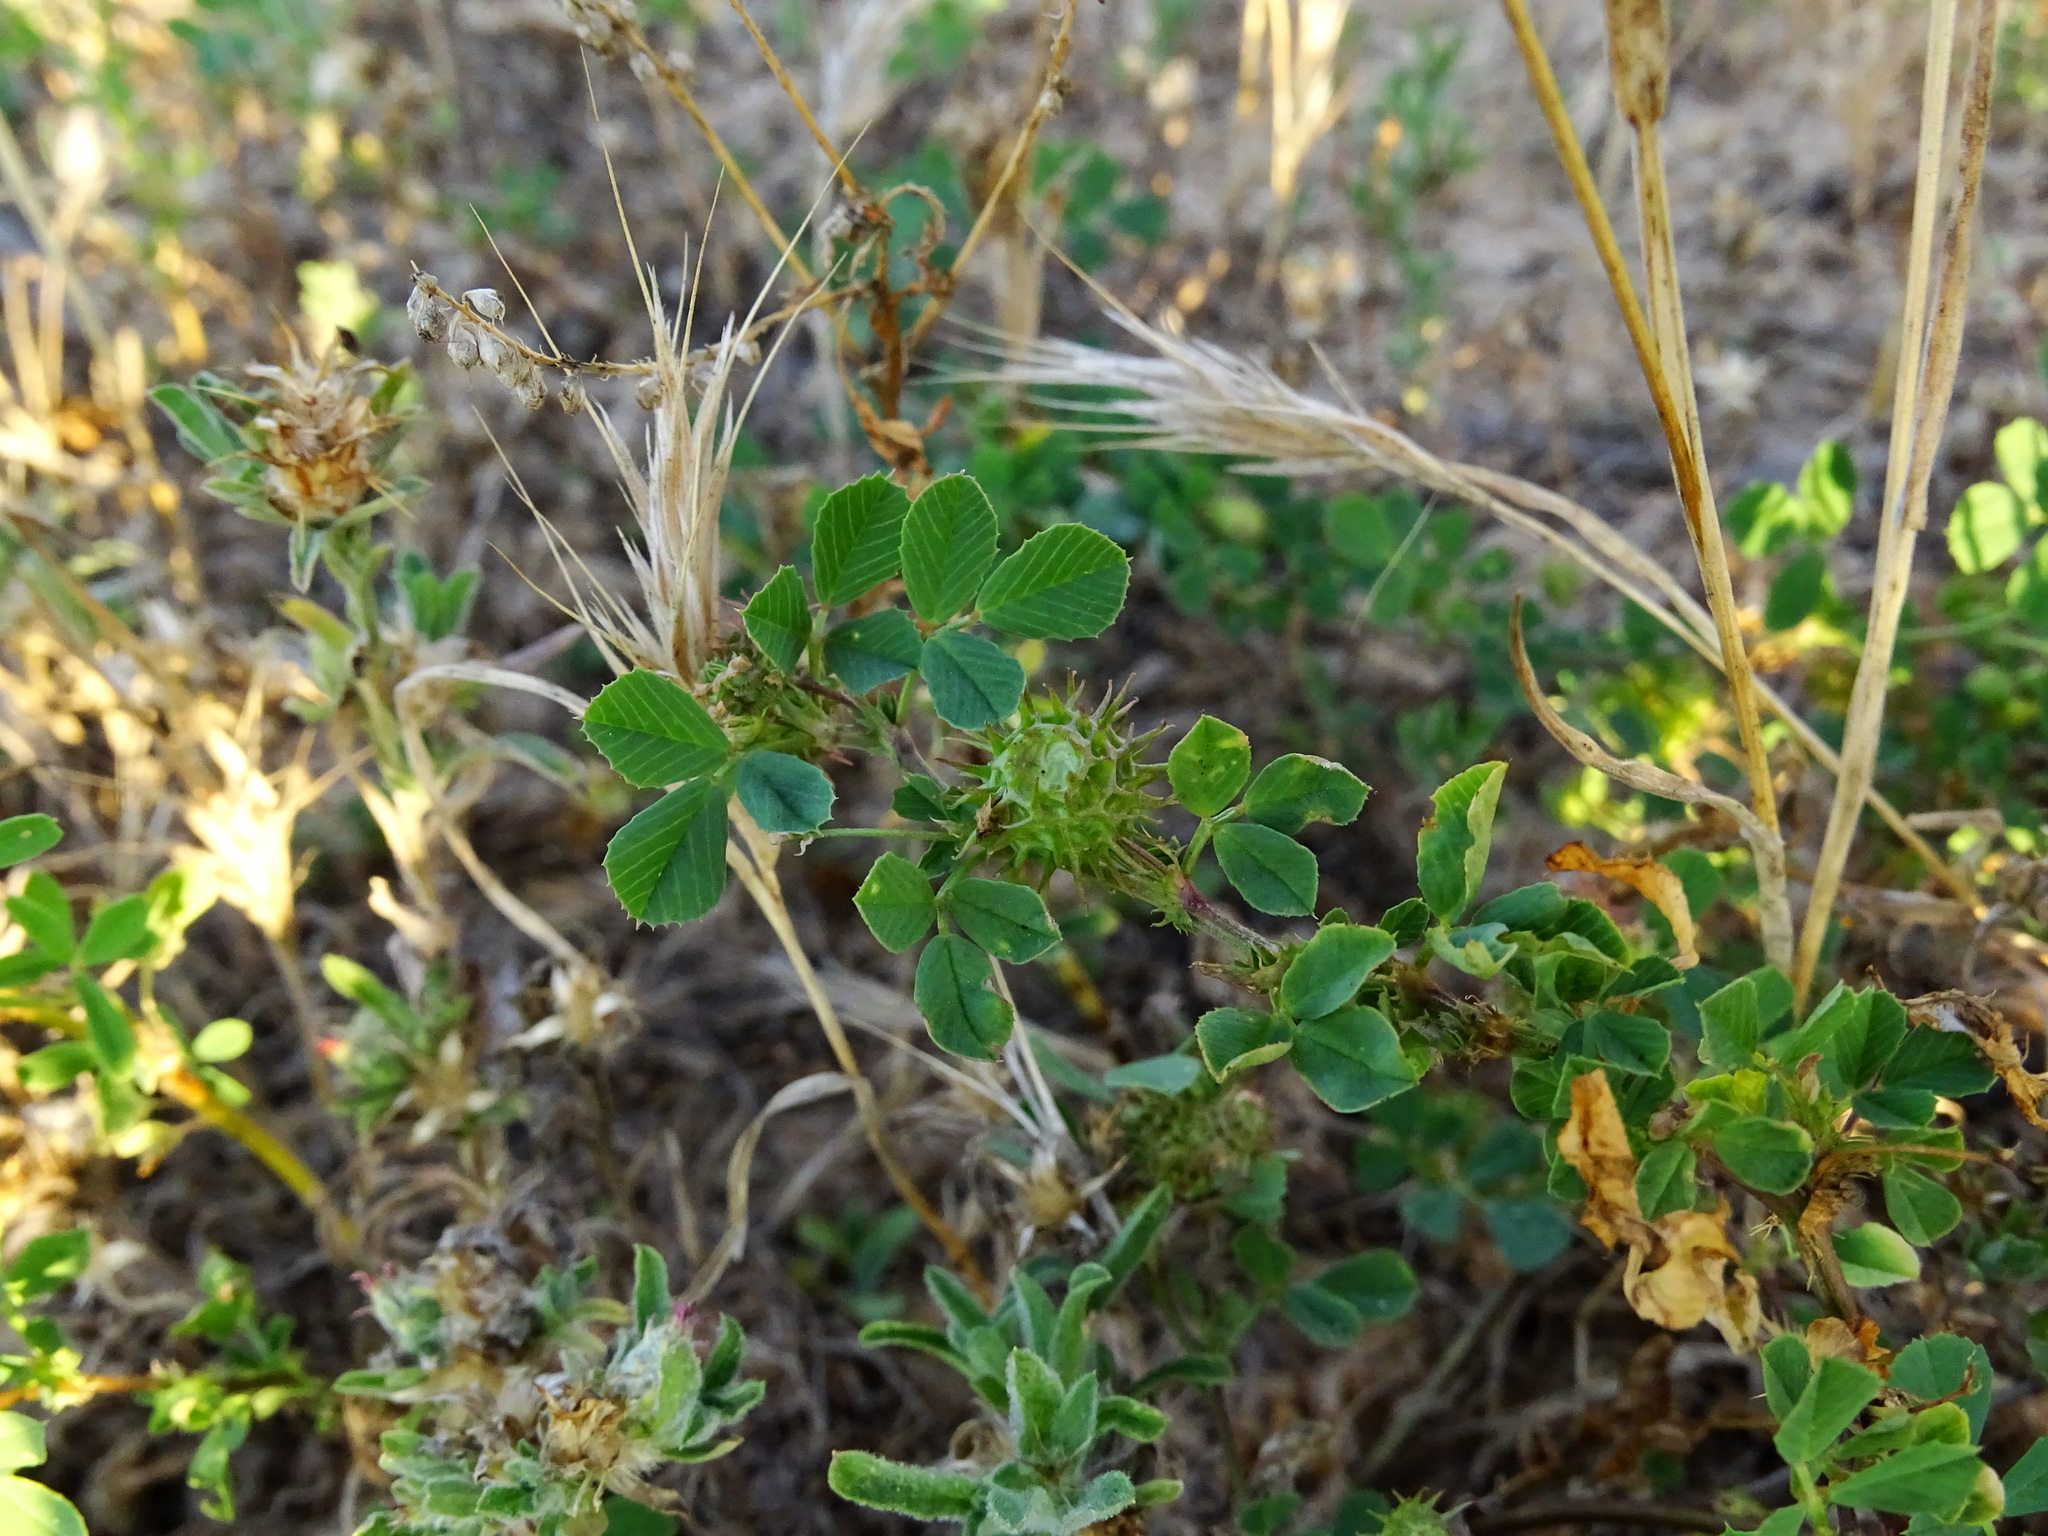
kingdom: Plantae
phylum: Tracheophyta
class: Magnoliopsida
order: Fabales
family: Fabaceae
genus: Medicago
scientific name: Medicago polymorpha
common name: Burclover
